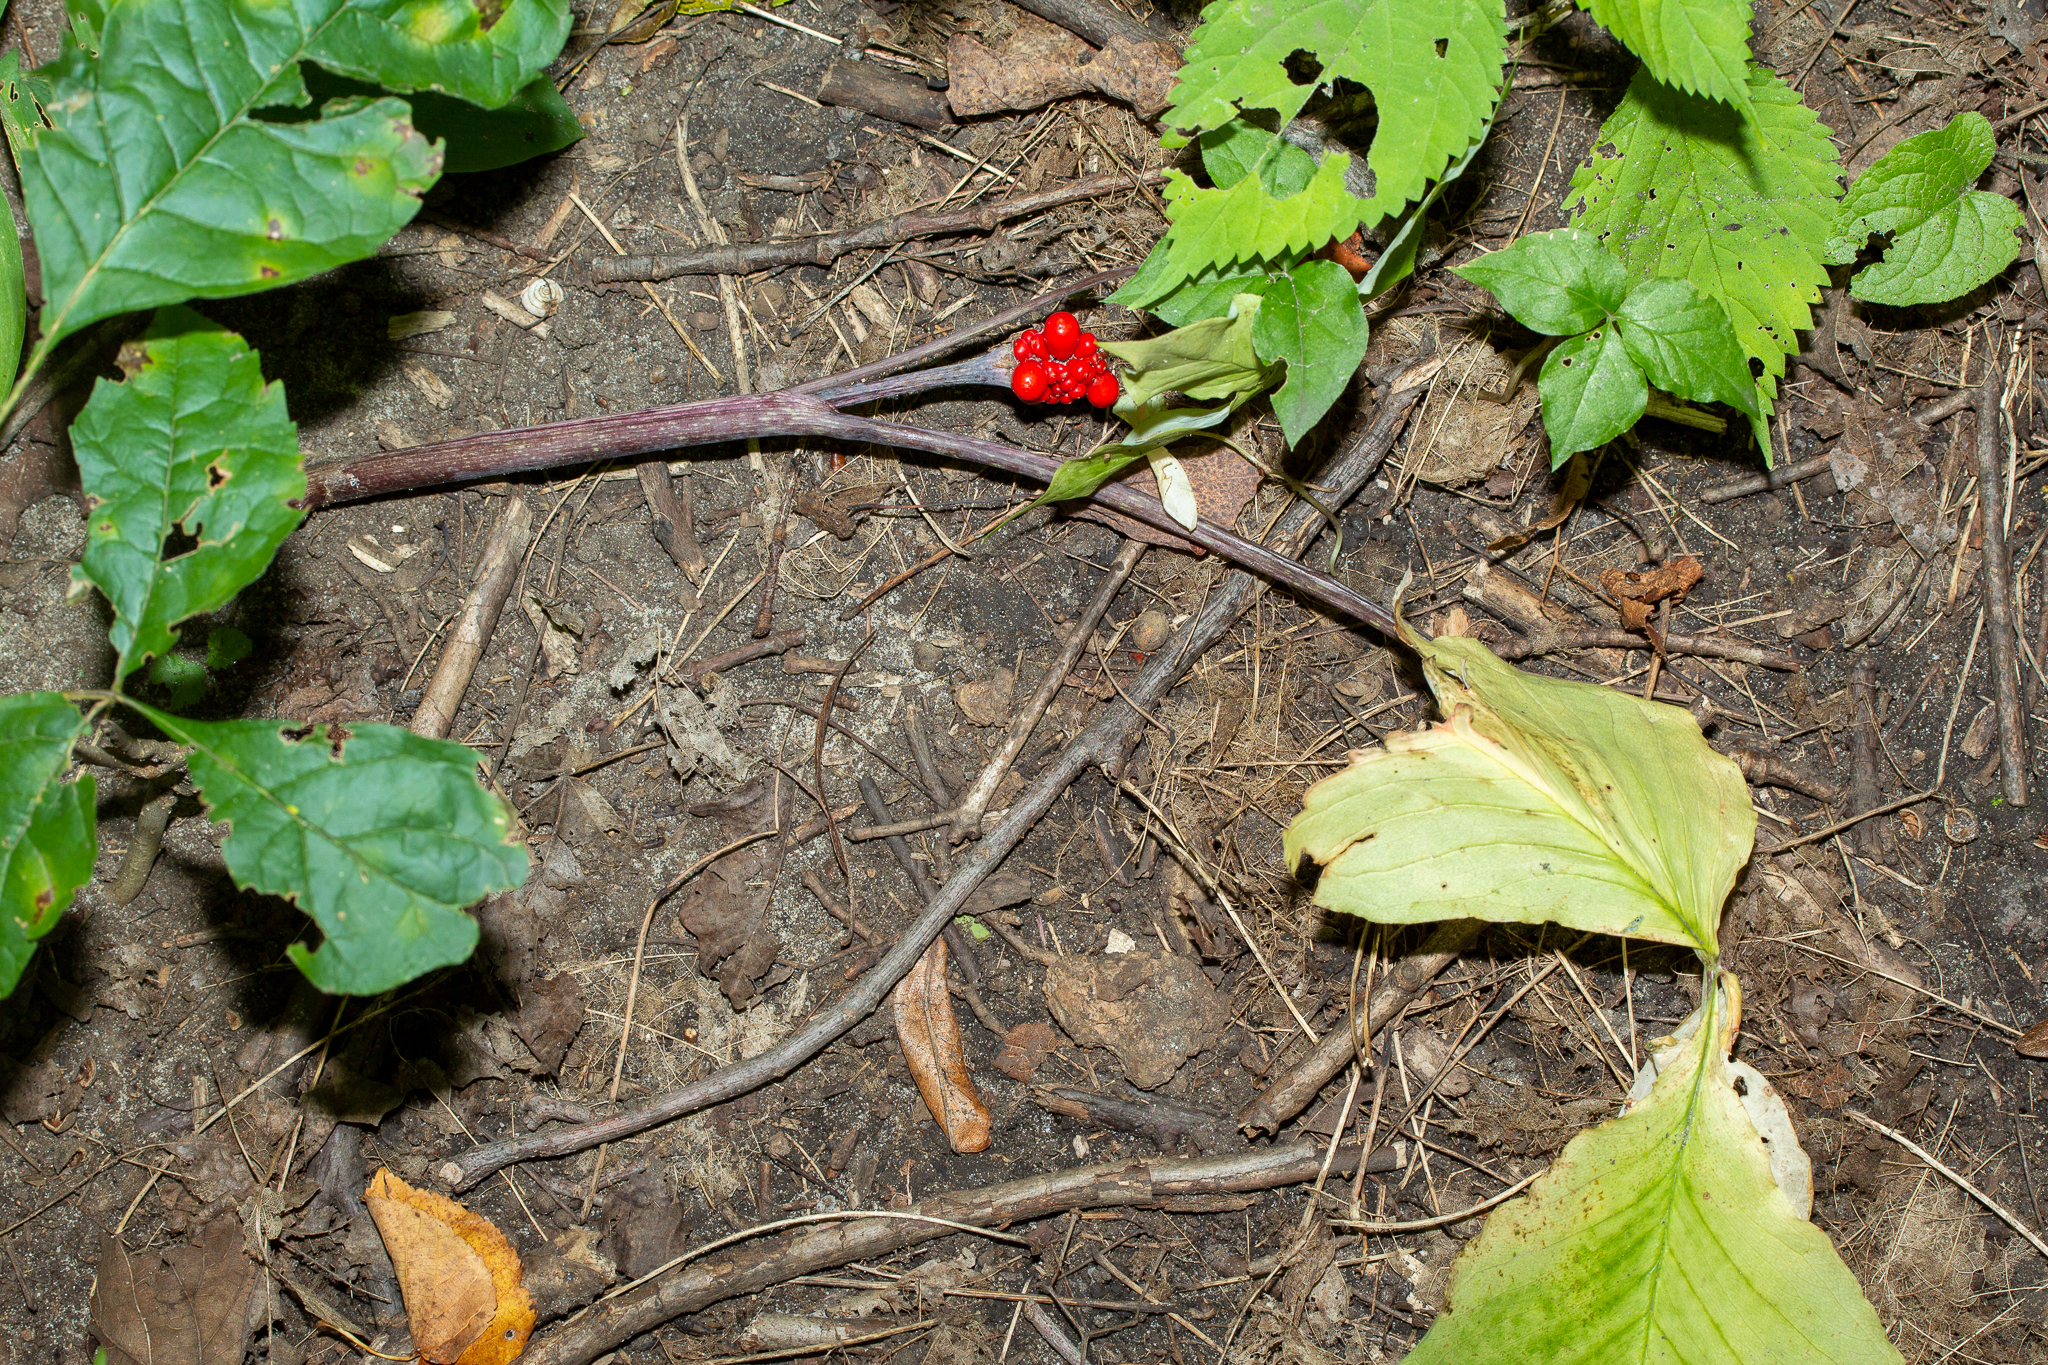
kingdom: Plantae
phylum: Tracheophyta
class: Liliopsida
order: Alismatales
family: Araceae
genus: Arisaema
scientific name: Arisaema triphyllum
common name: Jack-in-the-pulpit
